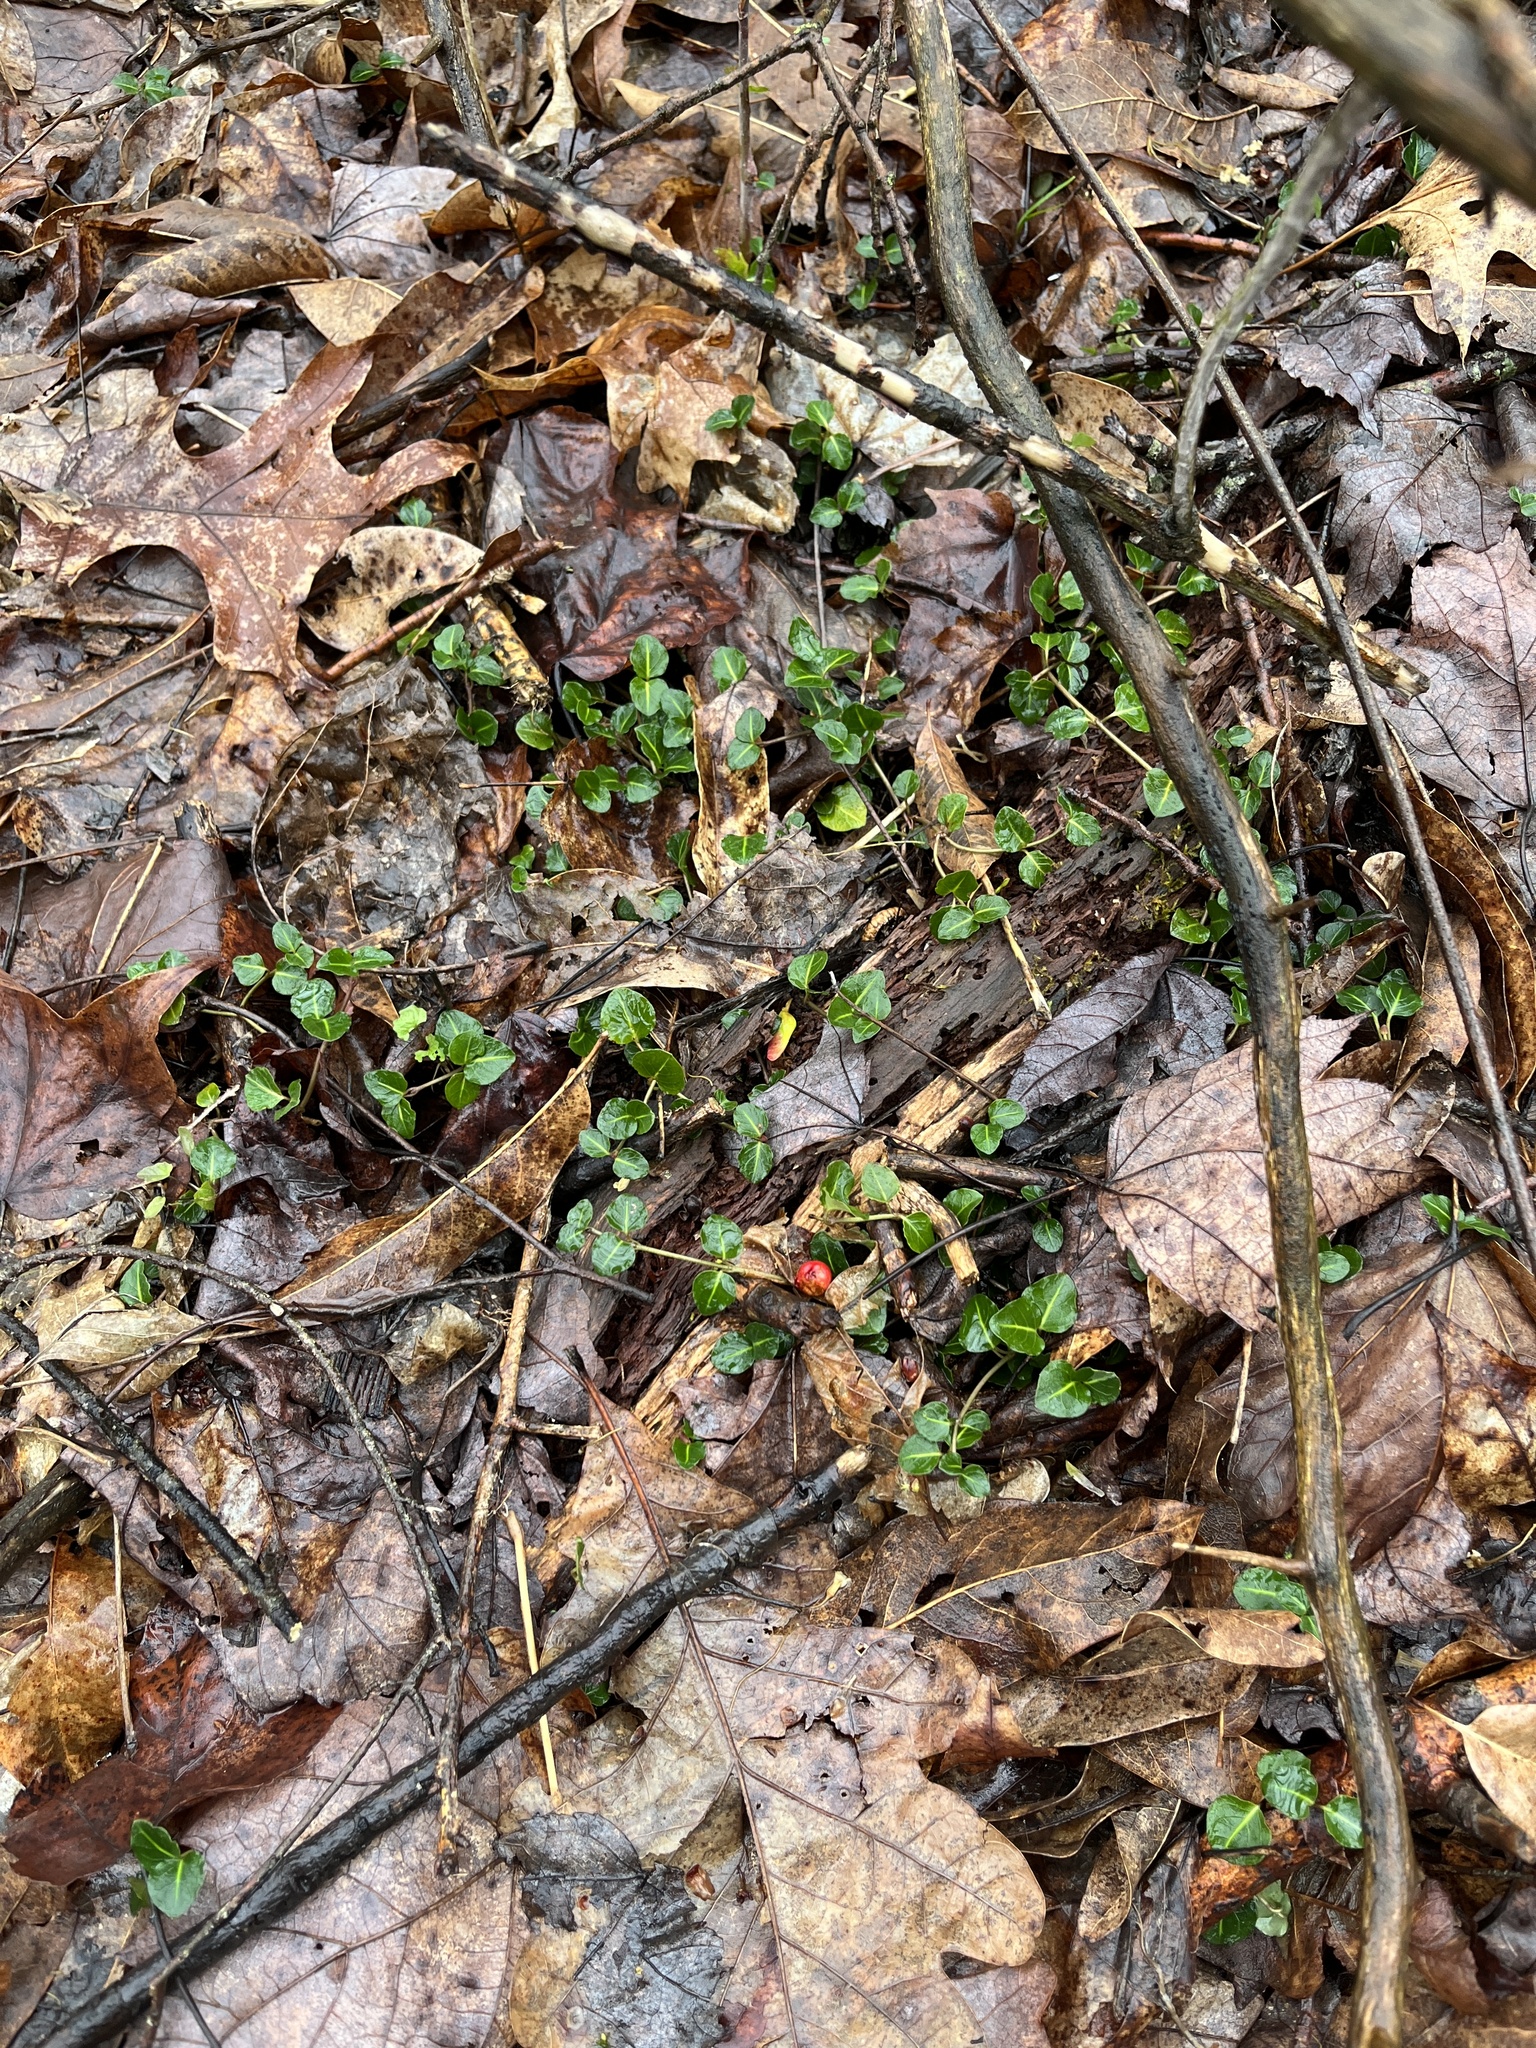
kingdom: Plantae
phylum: Tracheophyta
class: Magnoliopsida
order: Gentianales
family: Rubiaceae
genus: Mitchella
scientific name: Mitchella repens
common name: Partridge-berry
